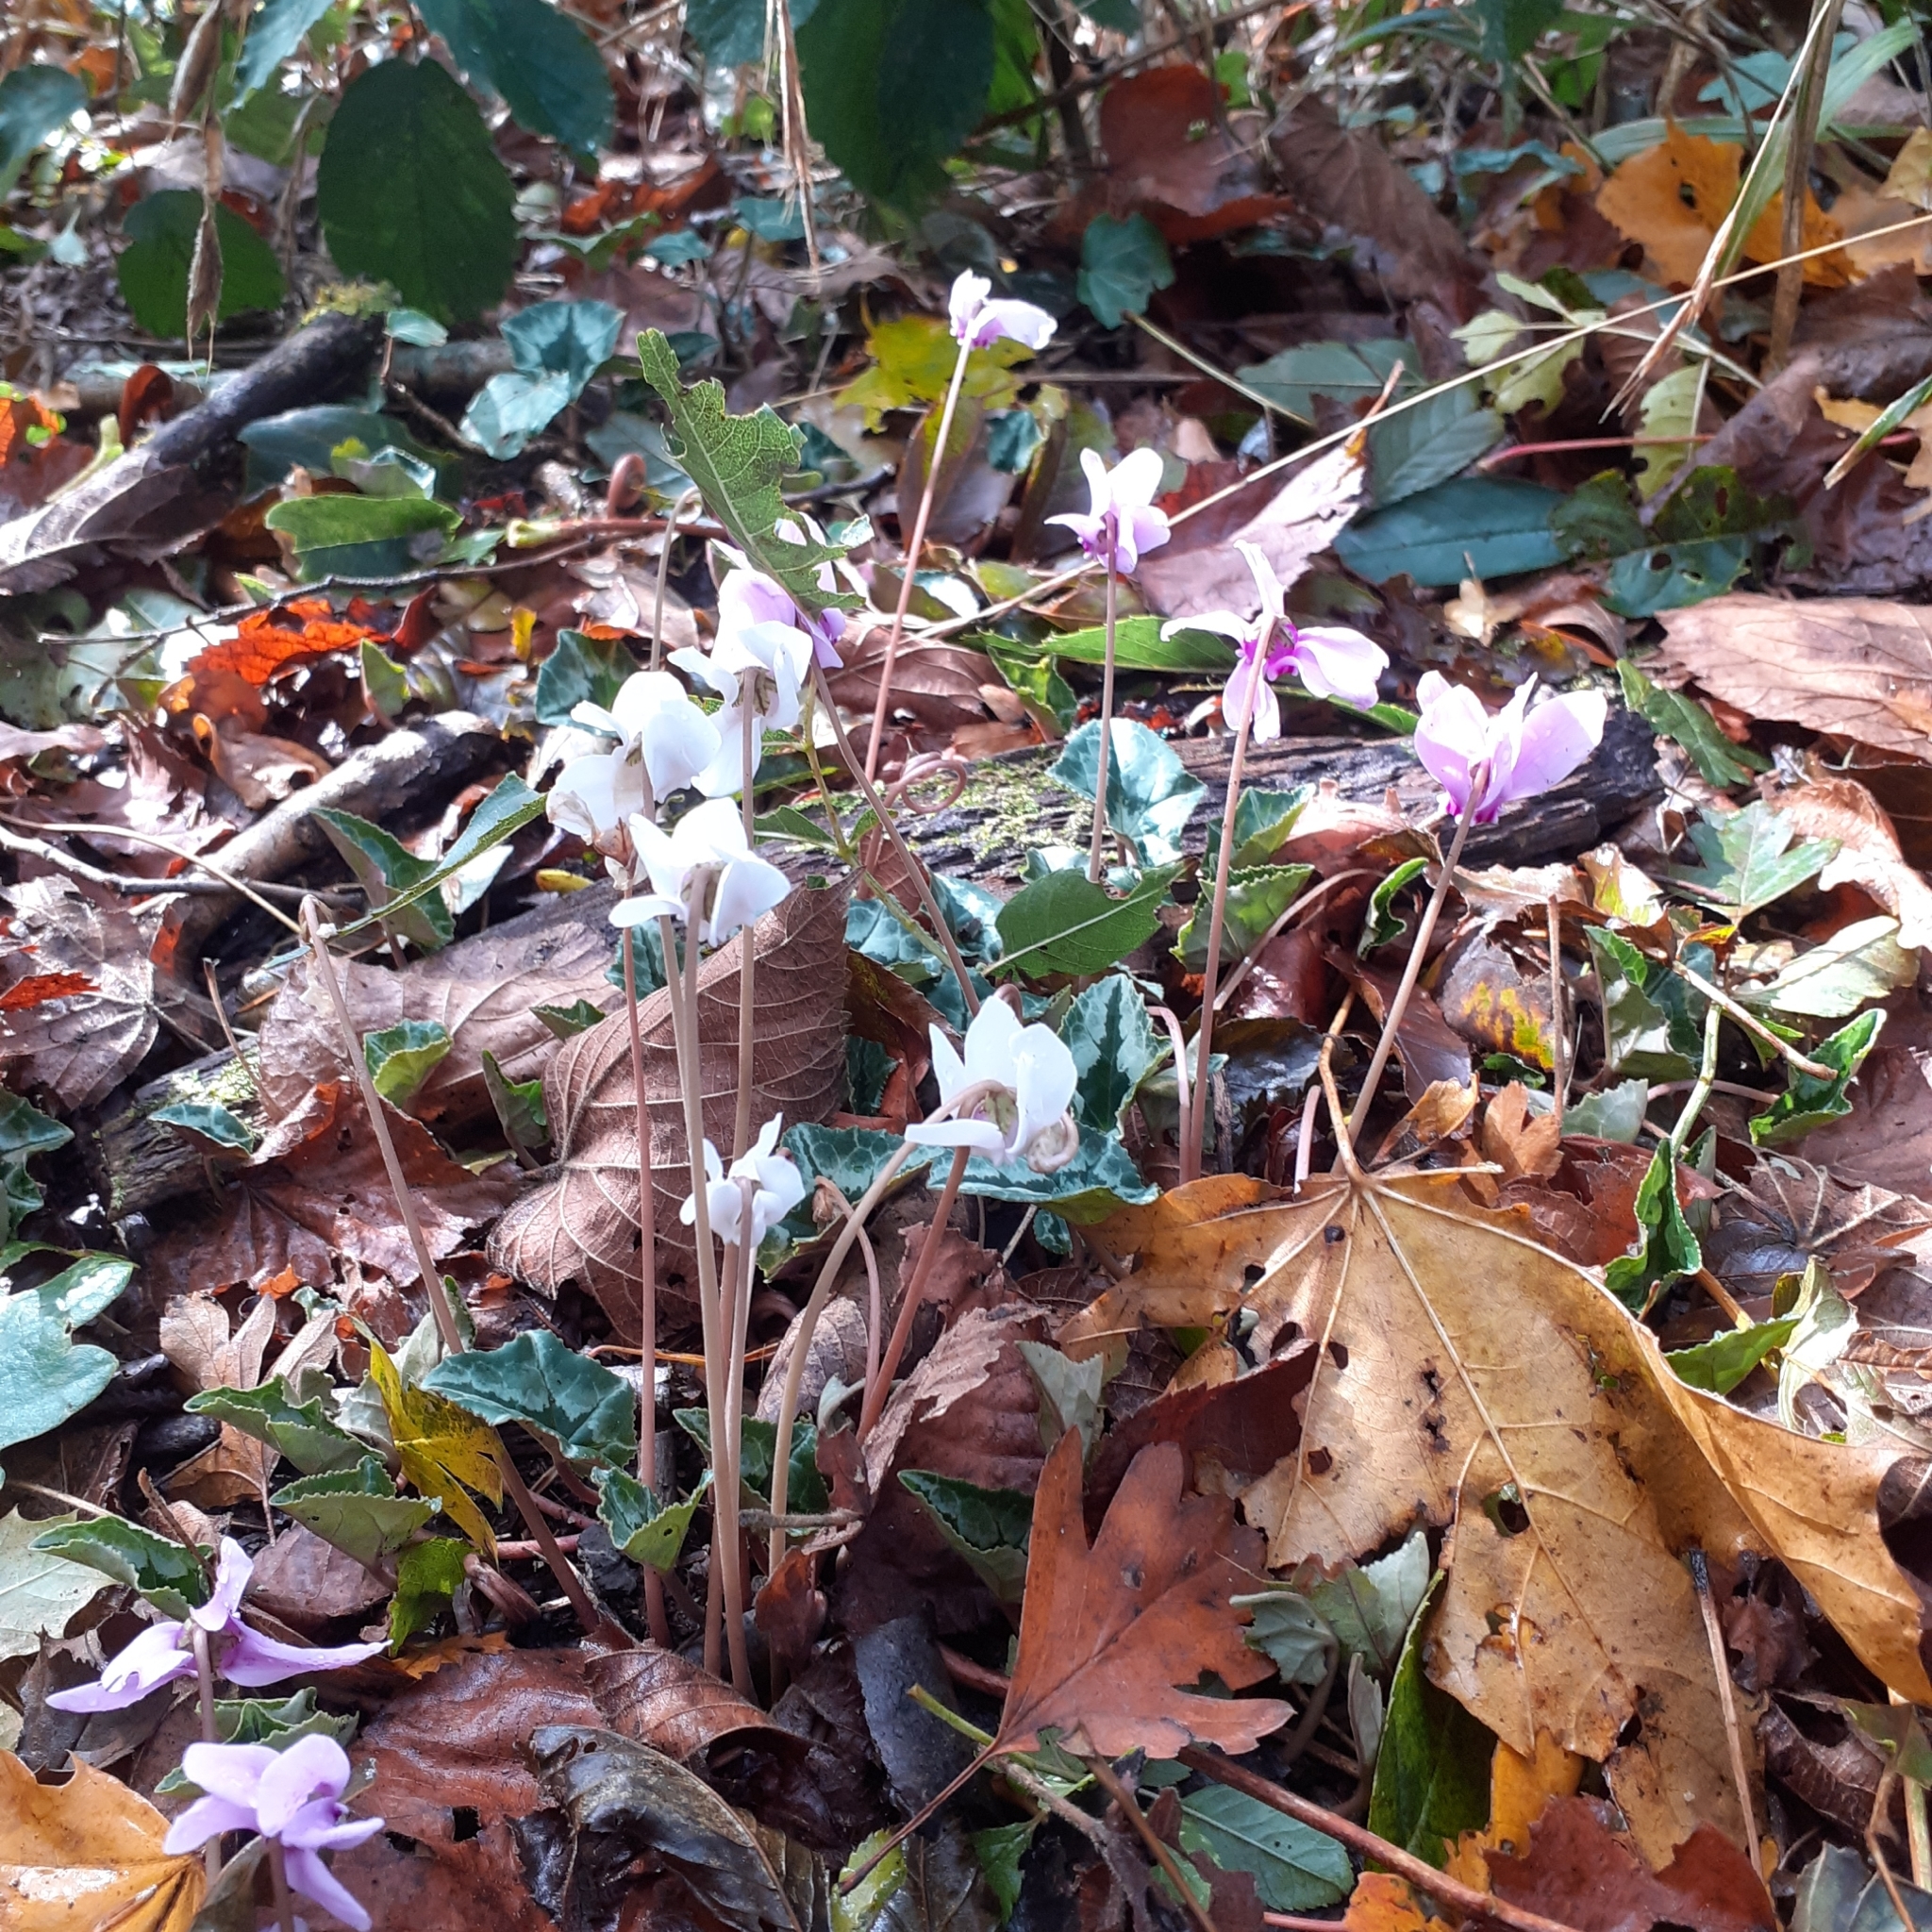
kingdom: Plantae
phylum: Tracheophyta
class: Magnoliopsida
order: Ericales
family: Primulaceae
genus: Cyclamen
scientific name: Cyclamen hederifolium
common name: Sowbread
